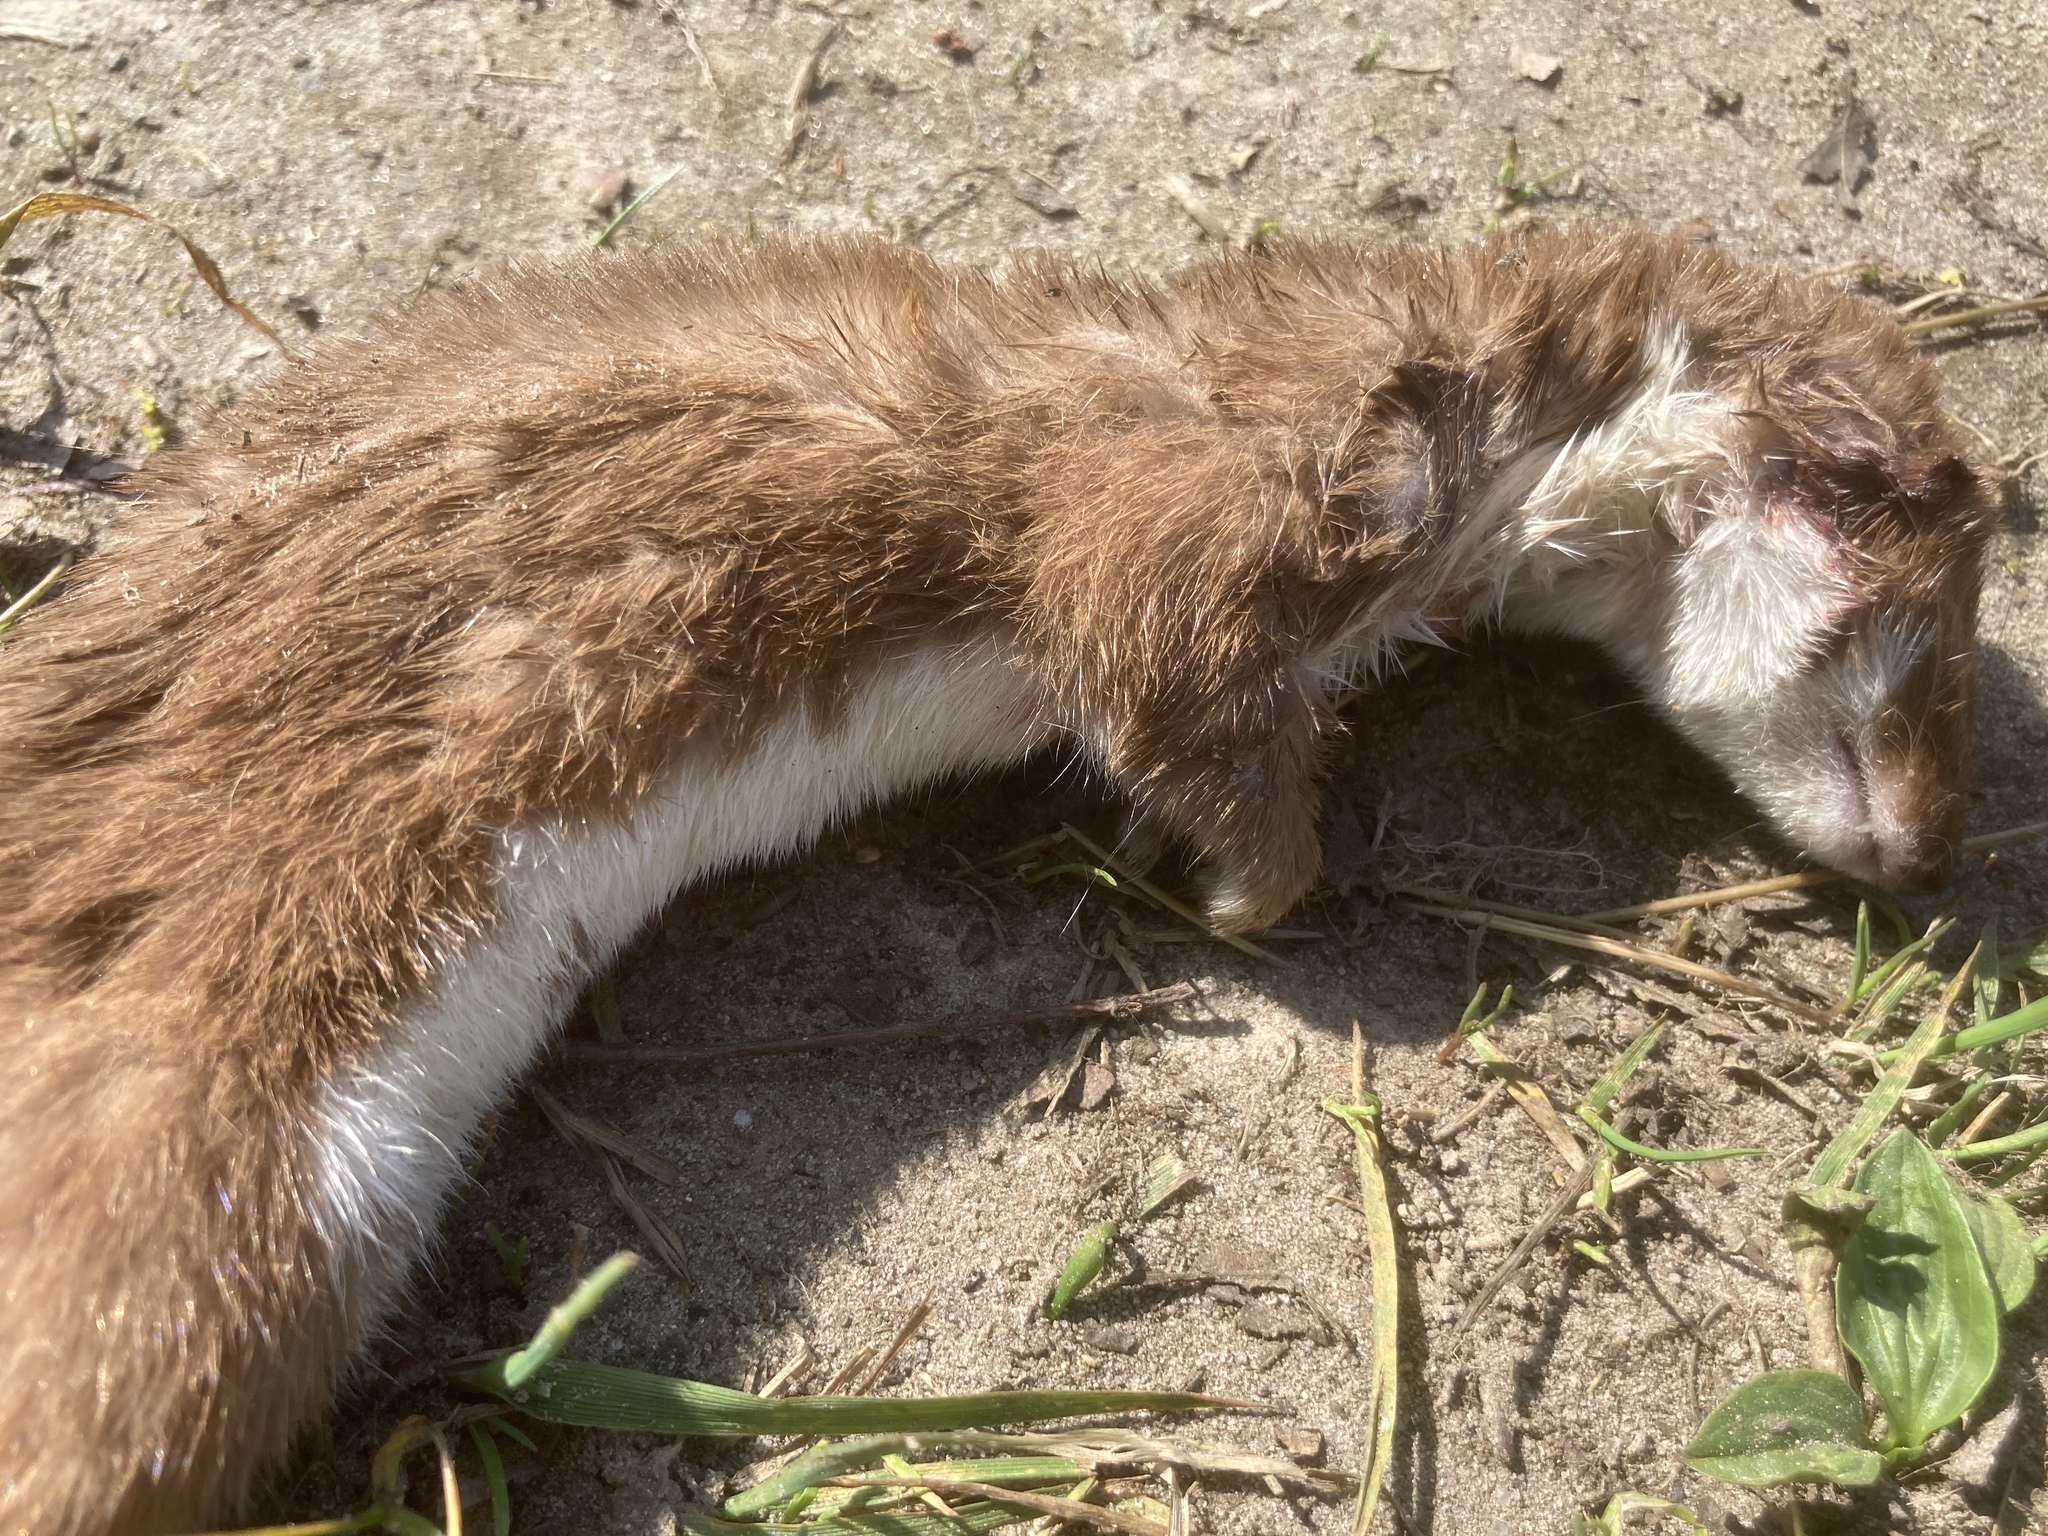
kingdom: Animalia
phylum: Chordata
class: Mammalia
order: Carnivora
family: Mustelidae
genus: Mustela
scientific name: Mustela nivalis
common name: Least weasel
